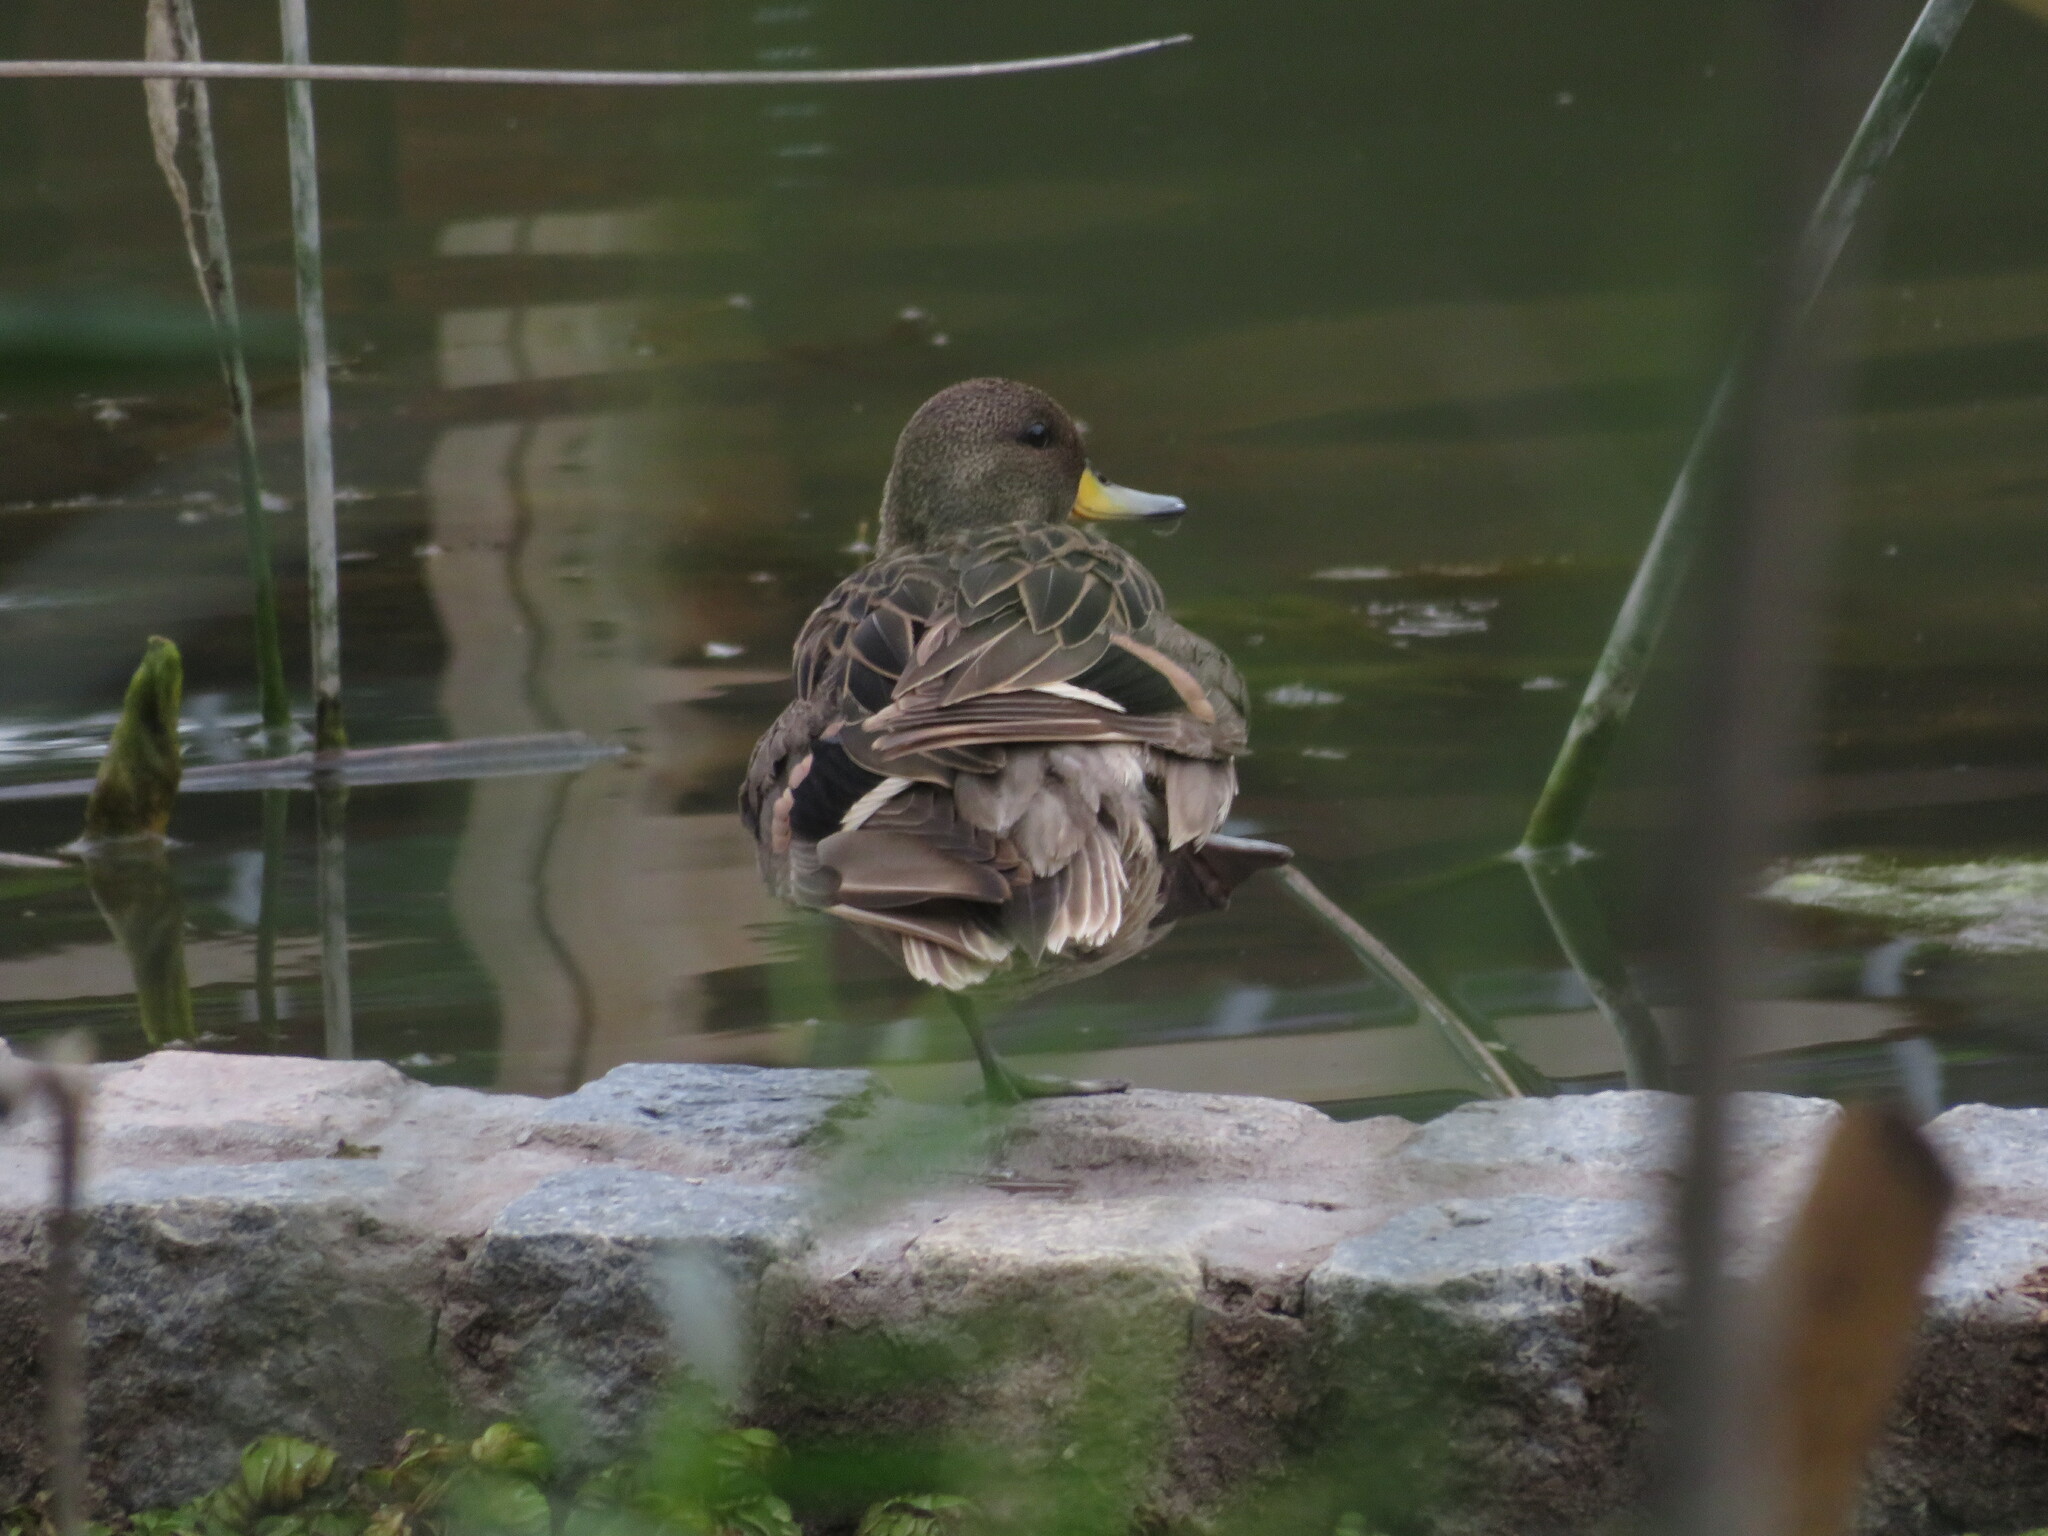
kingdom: Animalia
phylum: Chordata
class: Aves
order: Anseriformes
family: Anatidae
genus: Anas
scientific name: Anas flavirostris
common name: Yellow-billed teal
